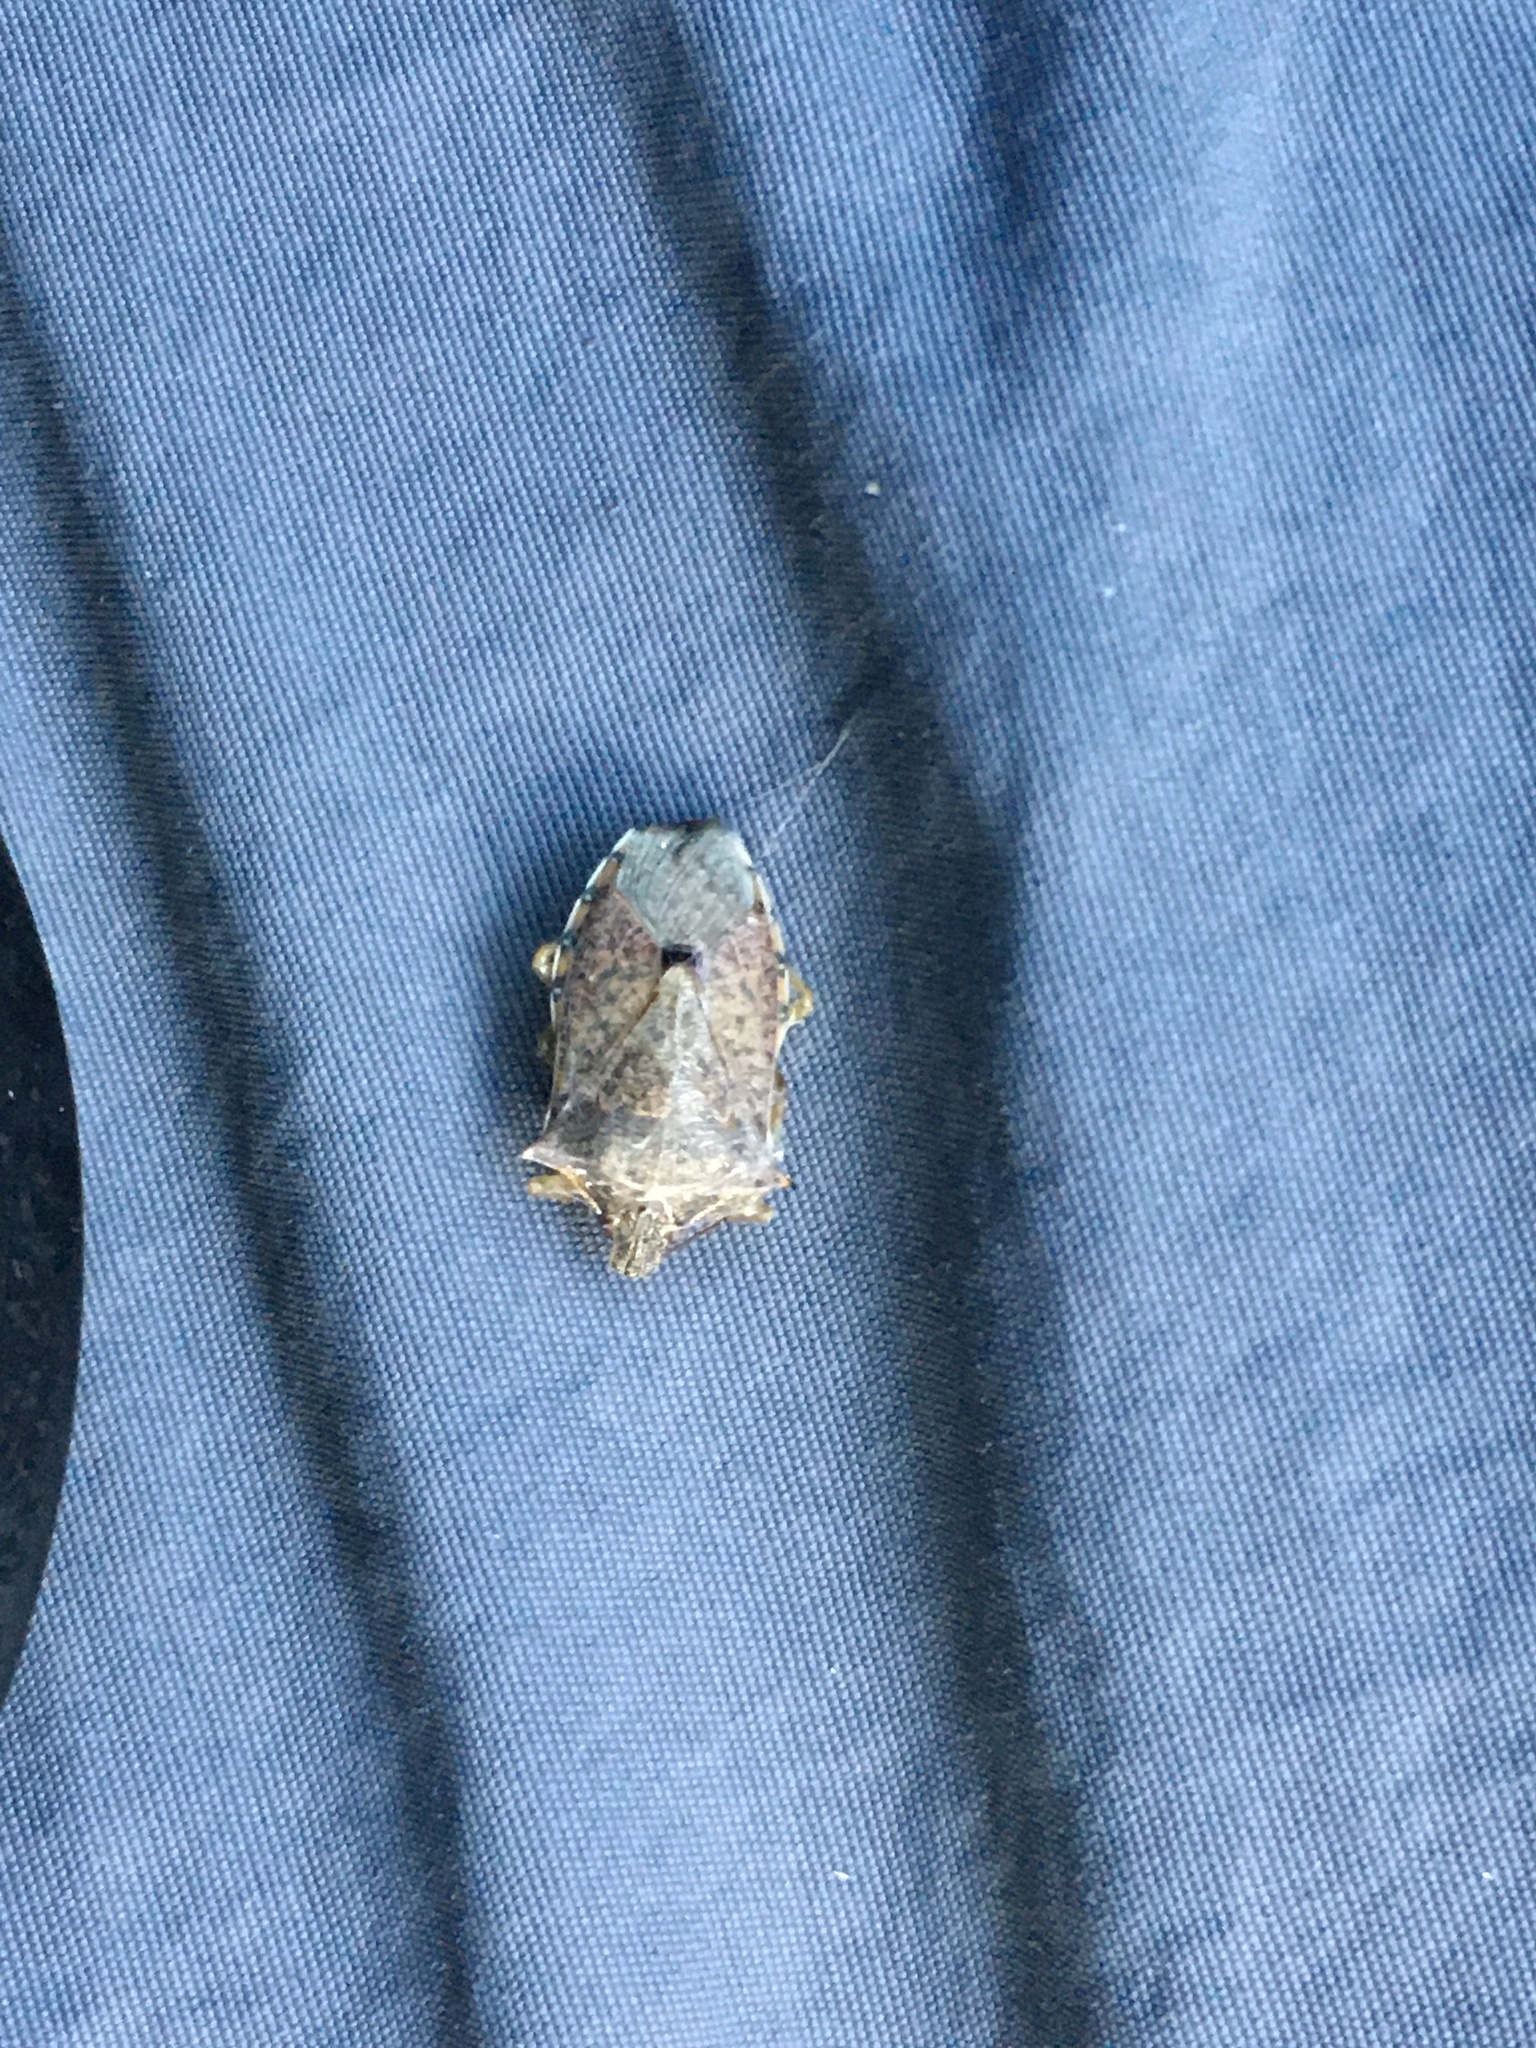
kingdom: Animalia
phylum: Arthropoda
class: Insecta
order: Hemiptera
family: Pentatomidae
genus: Alcaeorrhynchus
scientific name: Alcaeorrhynchus grandis
